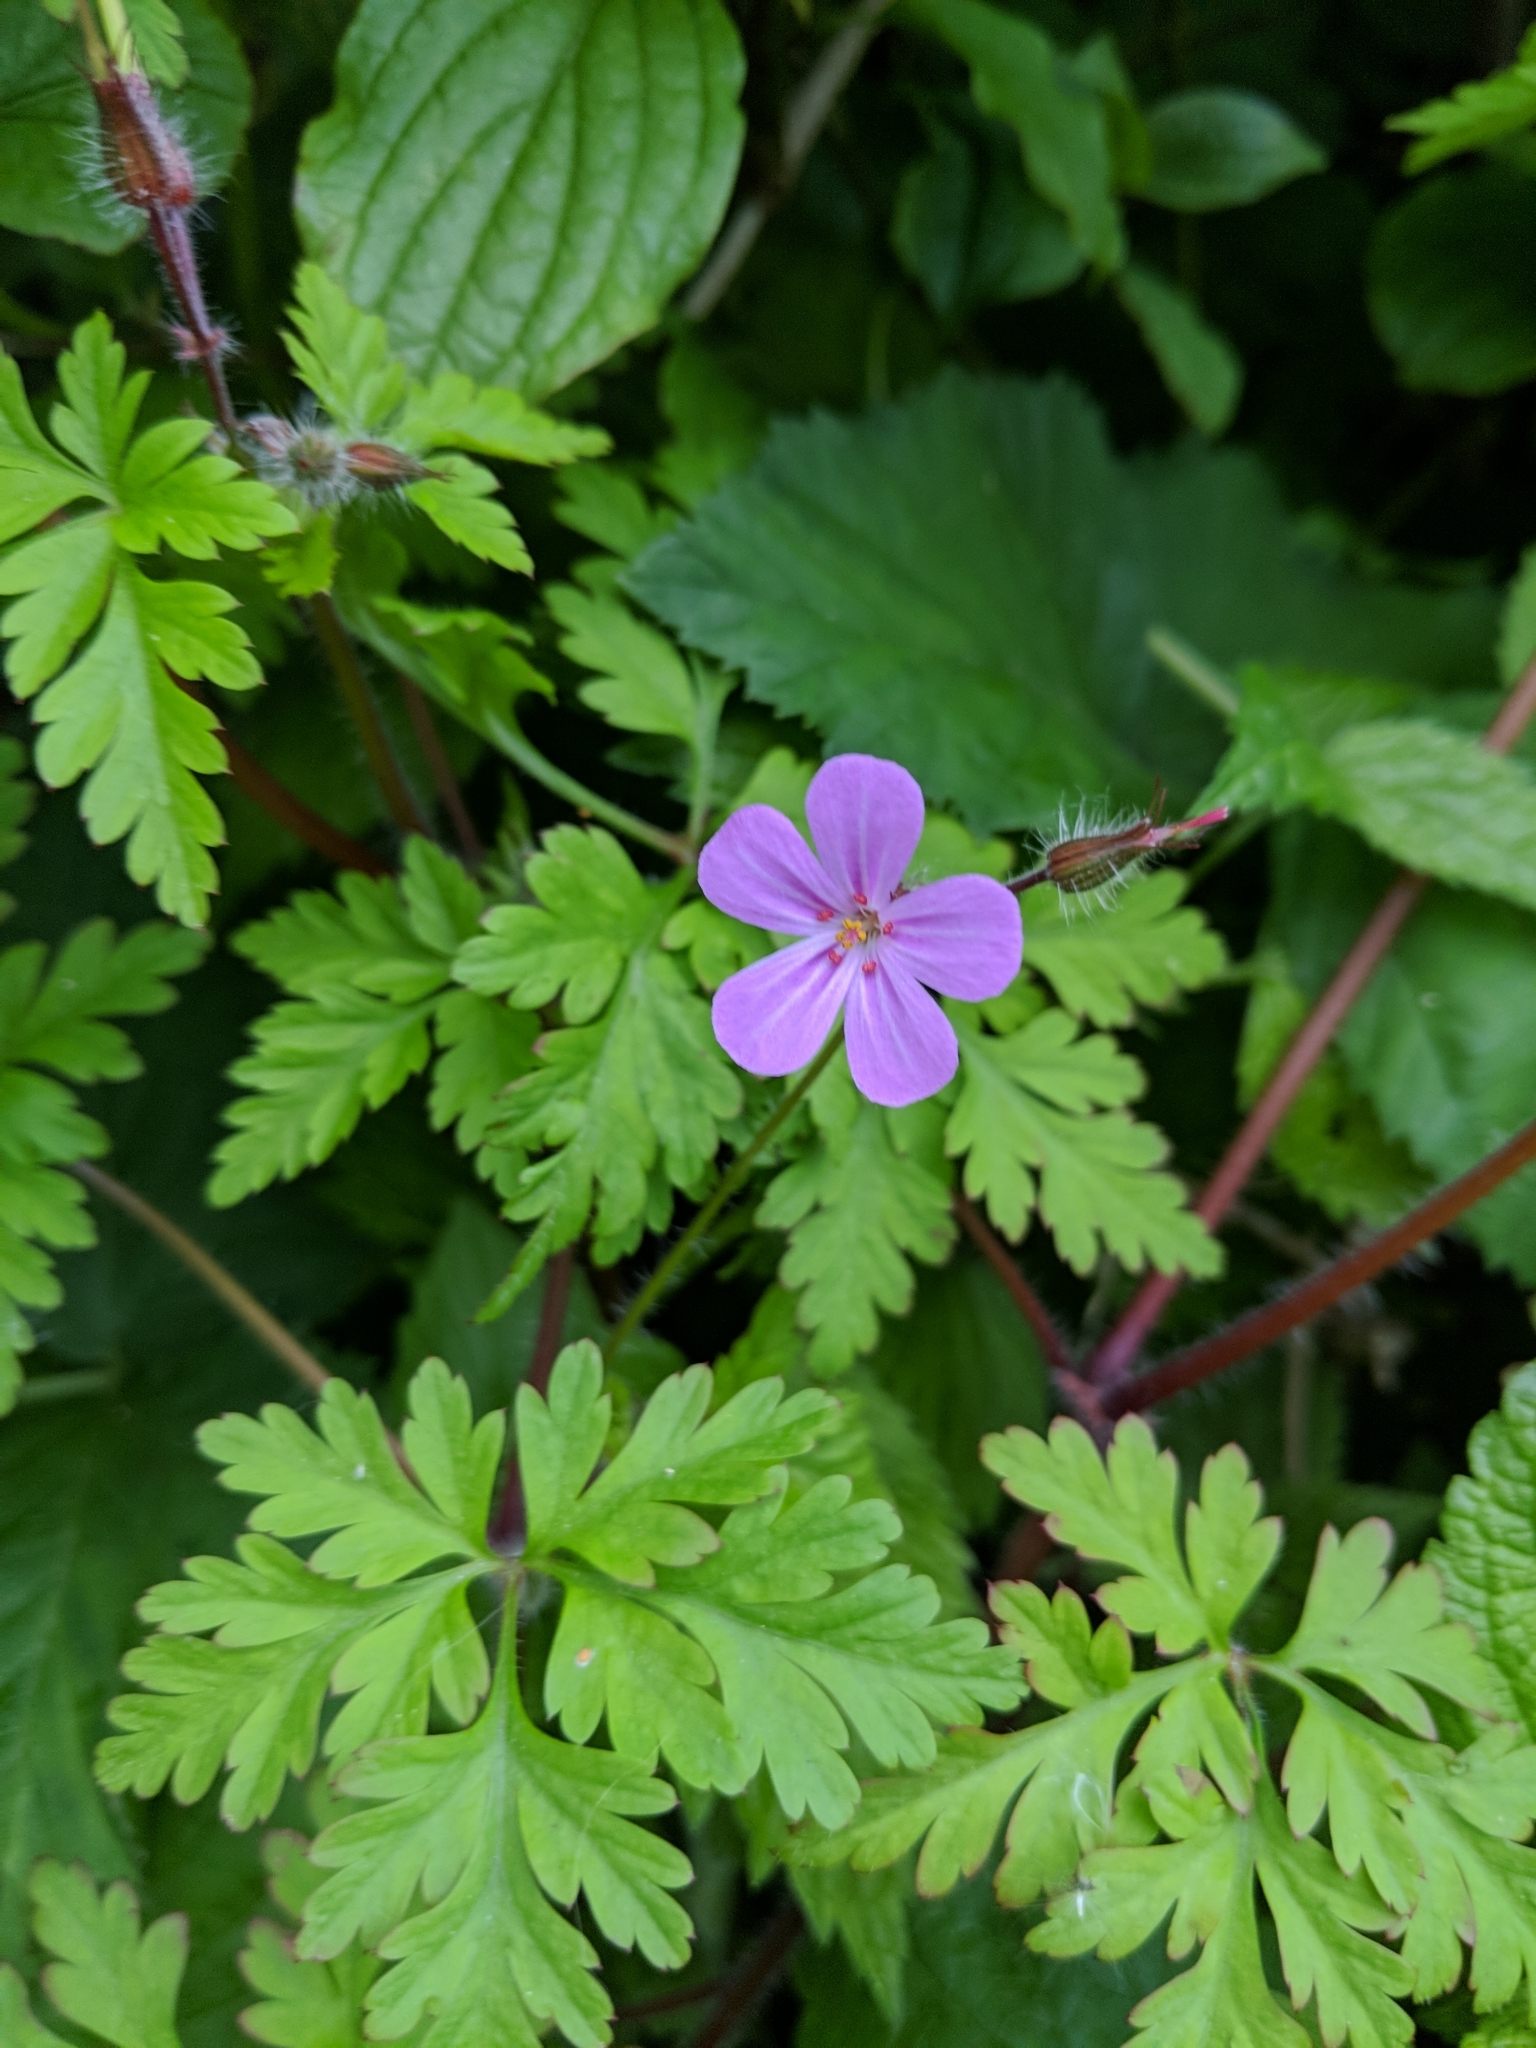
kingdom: Plantae
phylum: Tracheophyta
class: Magnoliopsida
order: Geraniales
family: Geraniaceae
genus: Geranium
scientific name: Geranium robertianum
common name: Herb-robert
